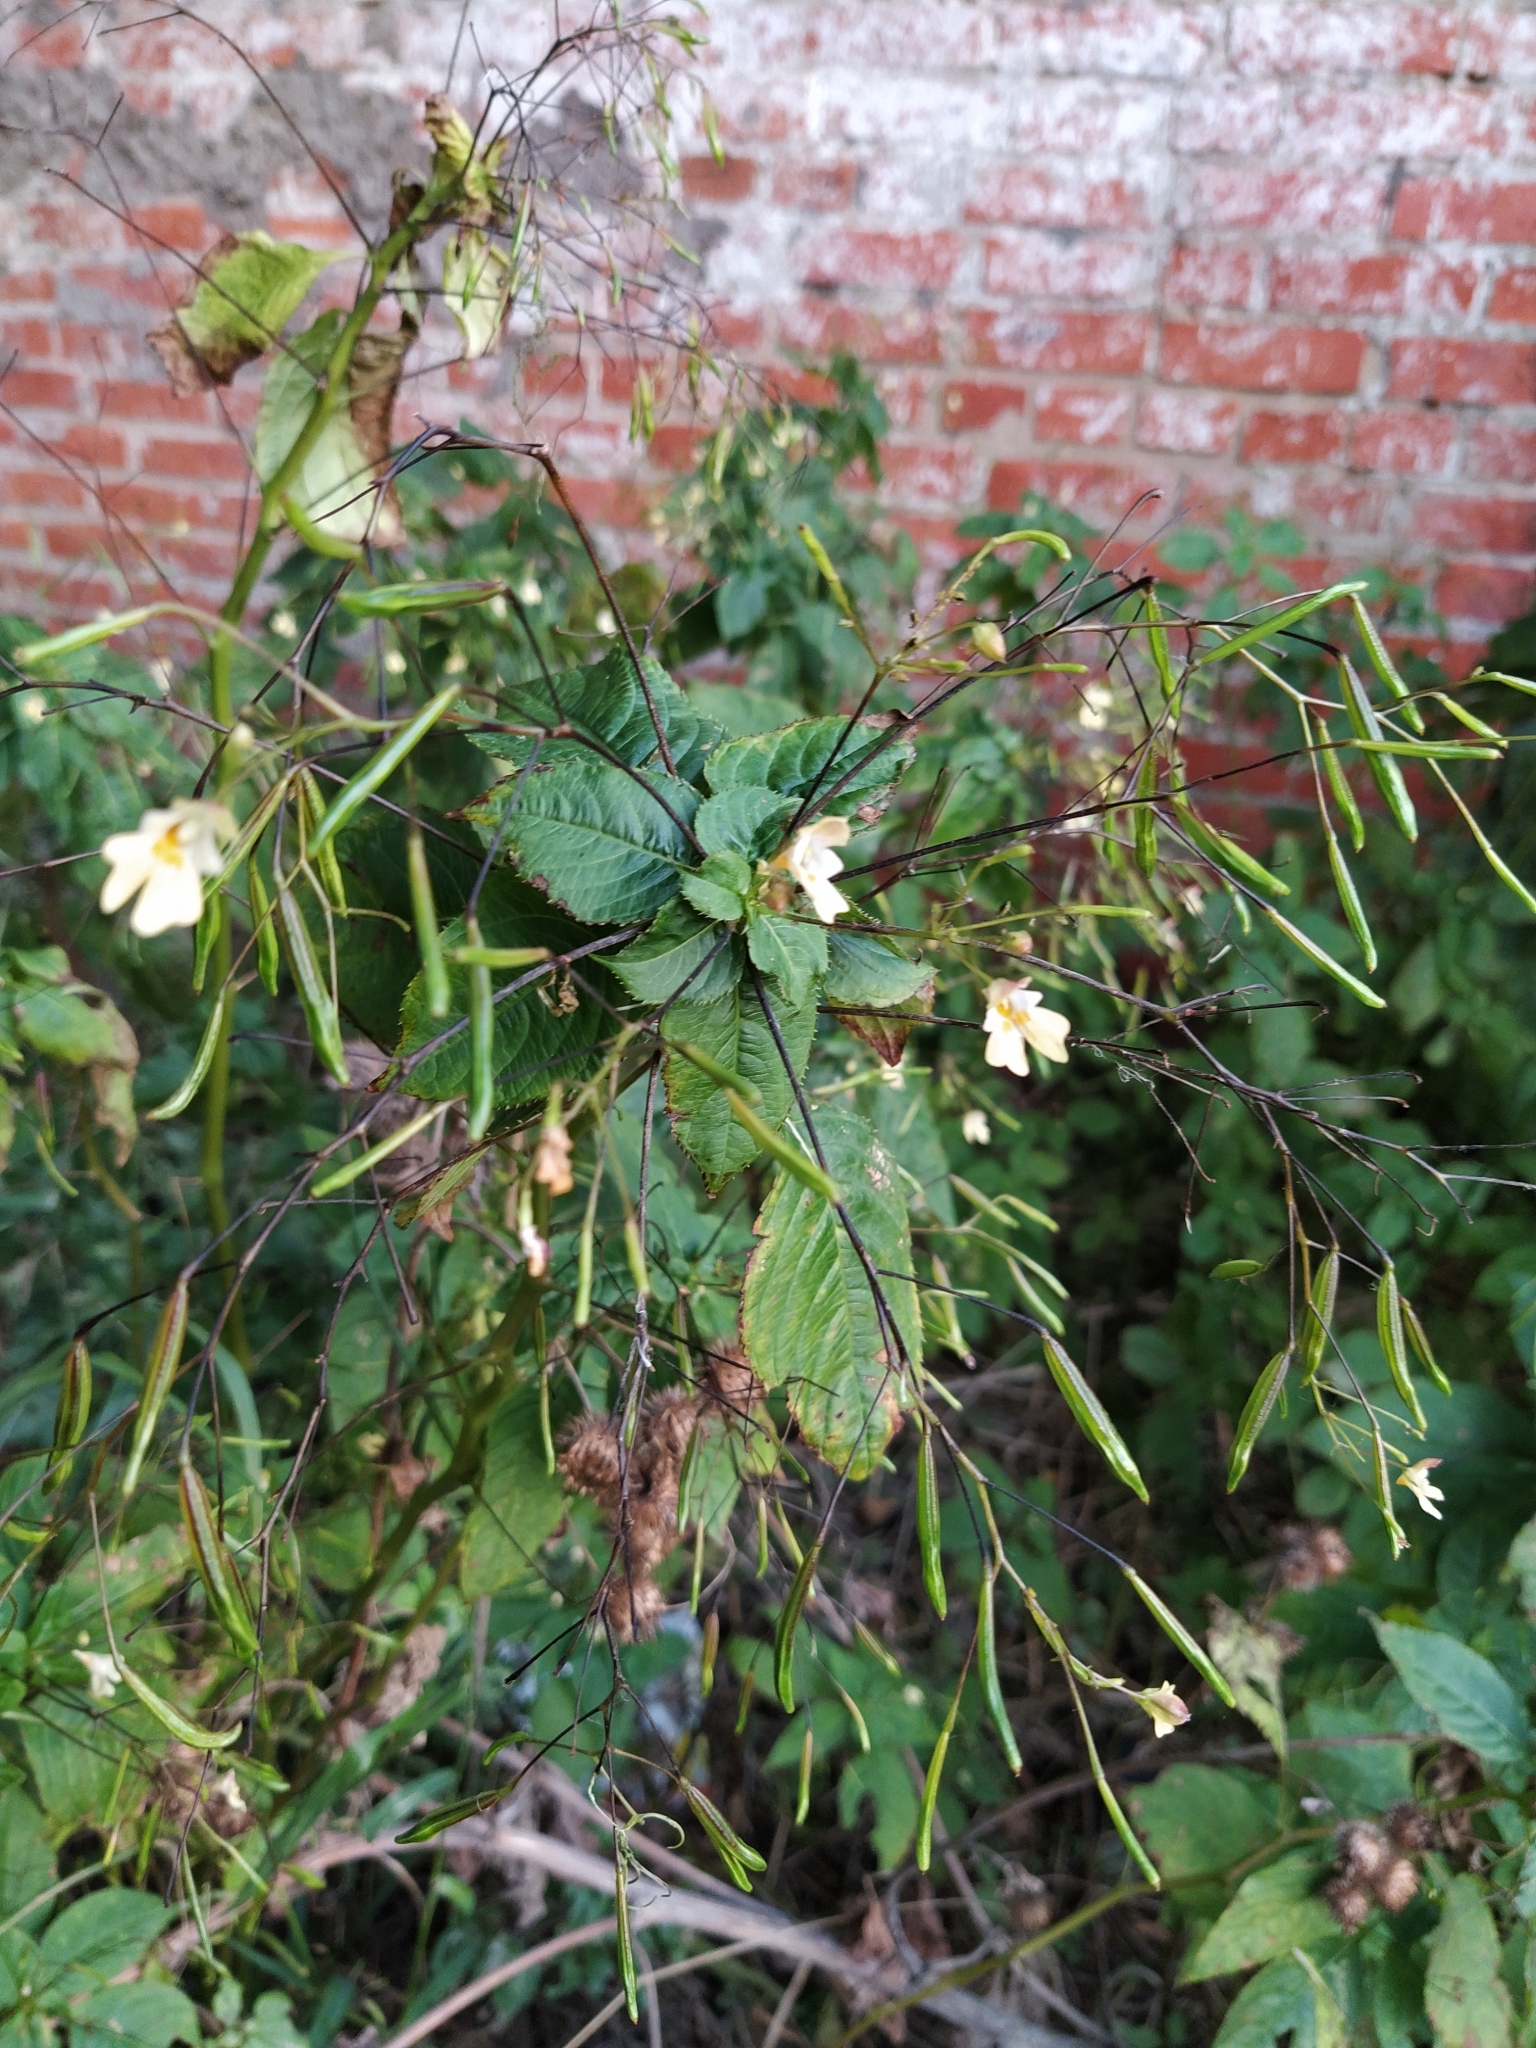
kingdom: Plantae
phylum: Tracheophyta
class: Magnoliopsida
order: Ericales
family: Balsaminaceae
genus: Impatiens
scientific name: Impatiens parviflora
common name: Small balsam
